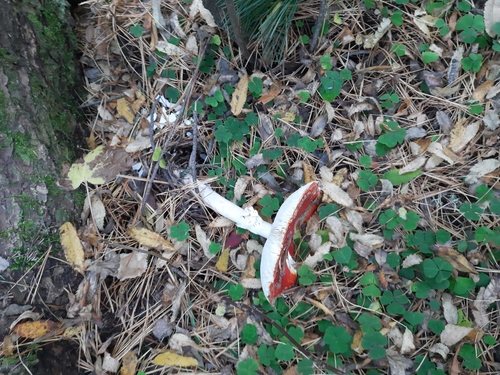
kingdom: Fungi
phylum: Basidiomycota
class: Agaricomycetes
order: Agaricales
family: Amanitaceae
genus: Amanita
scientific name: Amanita muscaria
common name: Fly agaric
